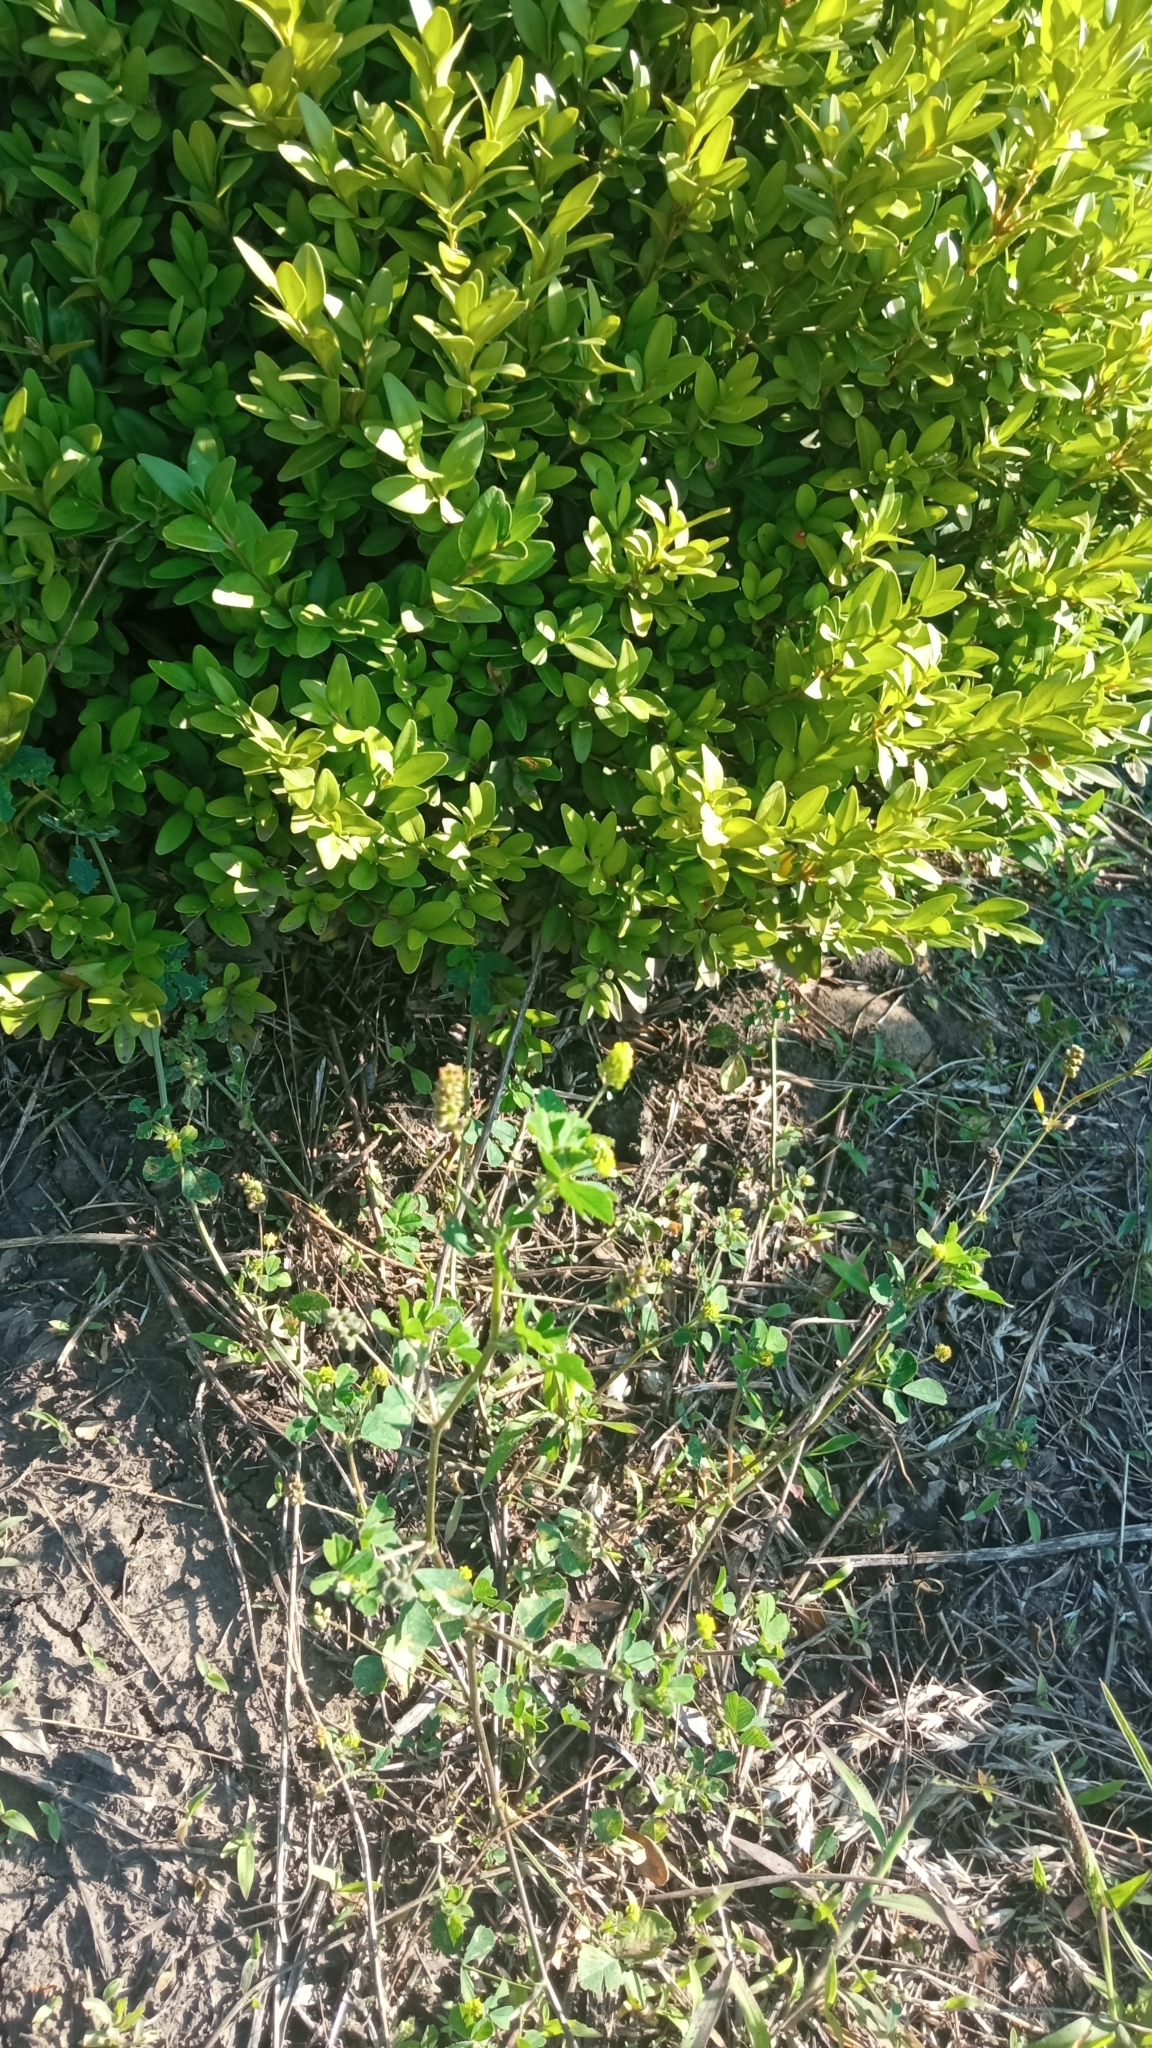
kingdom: Plantae
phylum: Tracheophyta
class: Magnoliopsida
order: Fabales
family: Fabaceae
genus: Medicago
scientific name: Medicago lupulina
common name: Black medick
